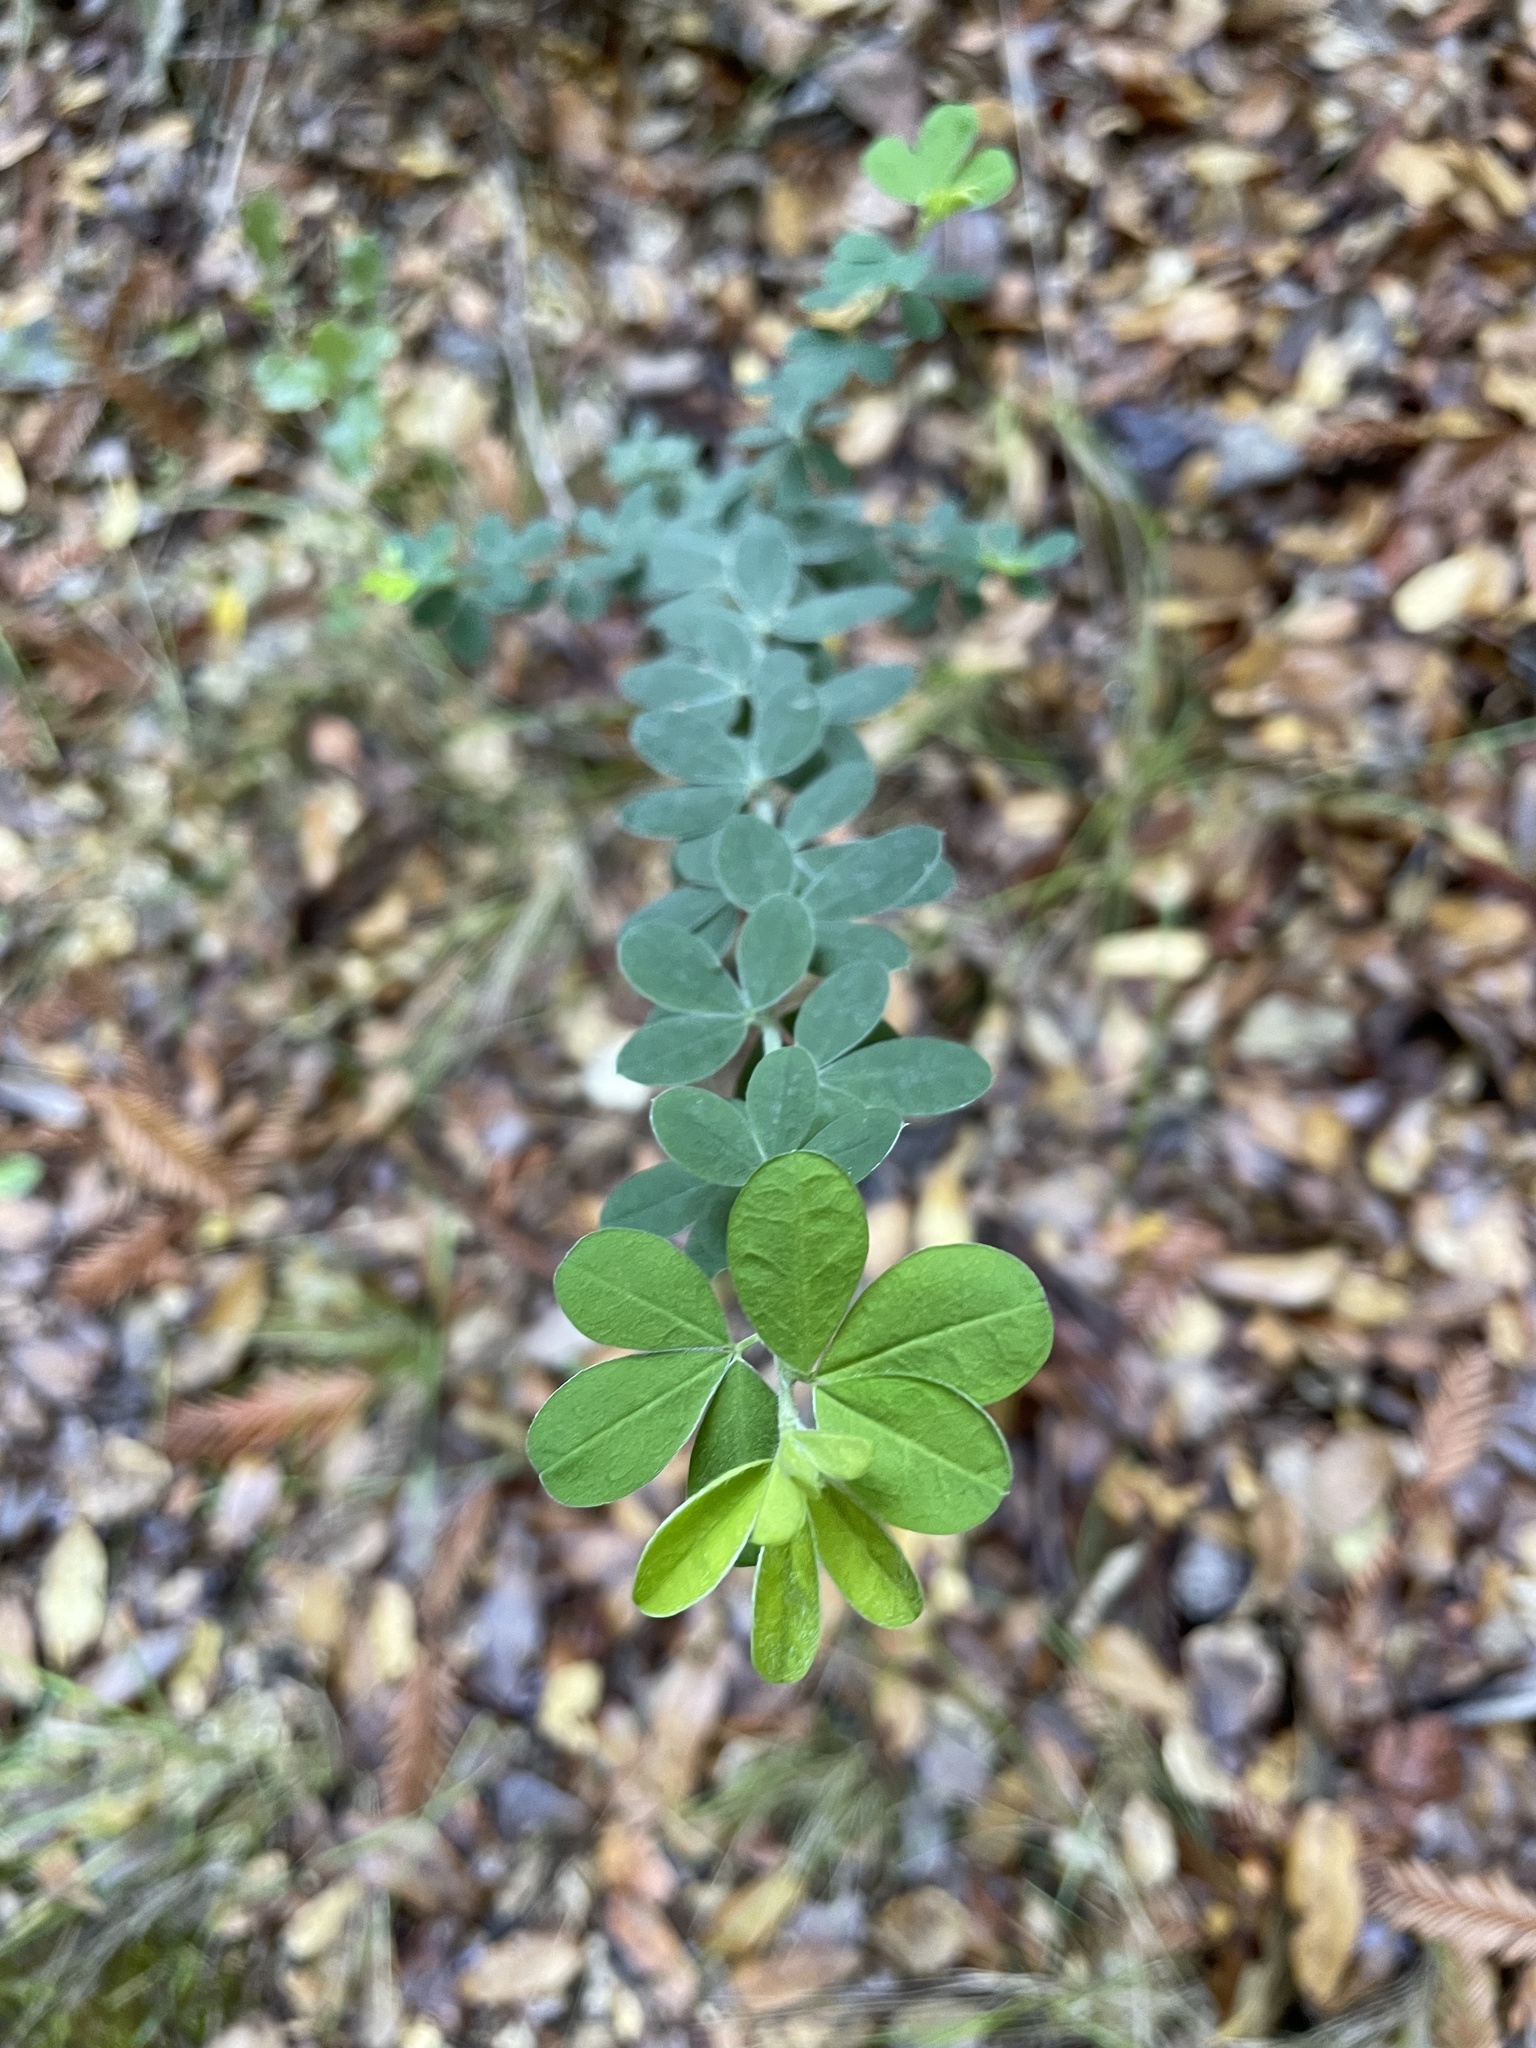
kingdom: Plantae
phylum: Tracheophyta
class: Magnoliopsida
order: Fabales
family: Fabaceae
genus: Genista
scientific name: Genista monspessulana
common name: Montpellier broom
